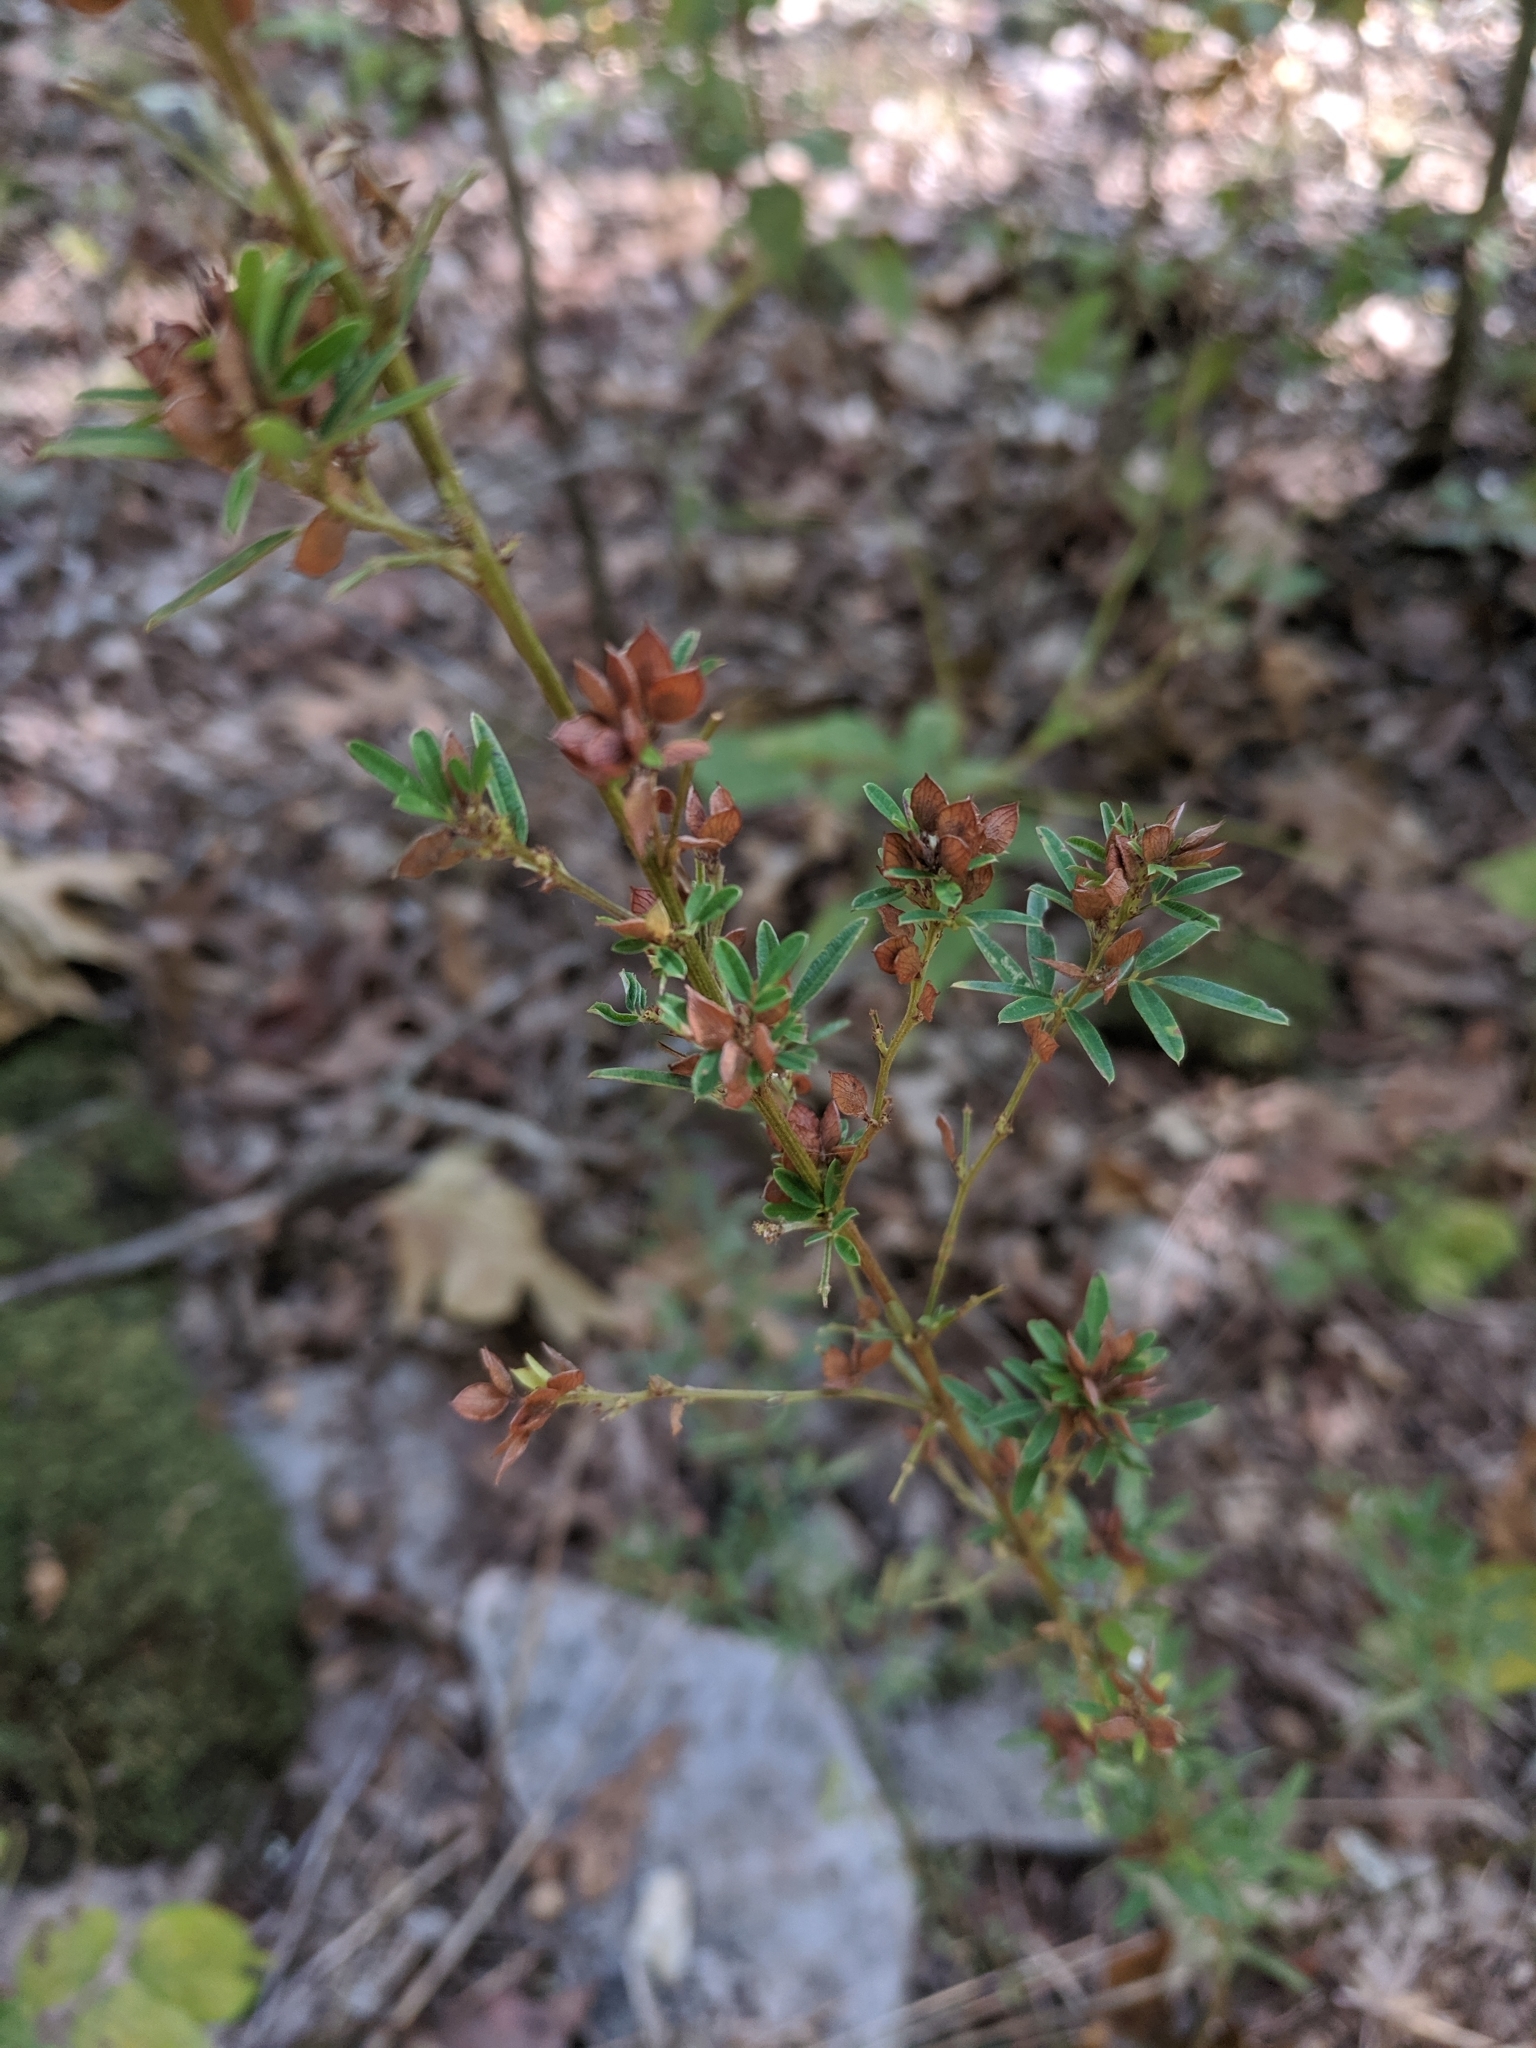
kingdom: Plantae
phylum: Tracheophyta
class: Magnoliopsida
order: Fabales
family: Fabaceae
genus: Lespedeza
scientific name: Lespedeza virginica
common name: Slender bush-clover
